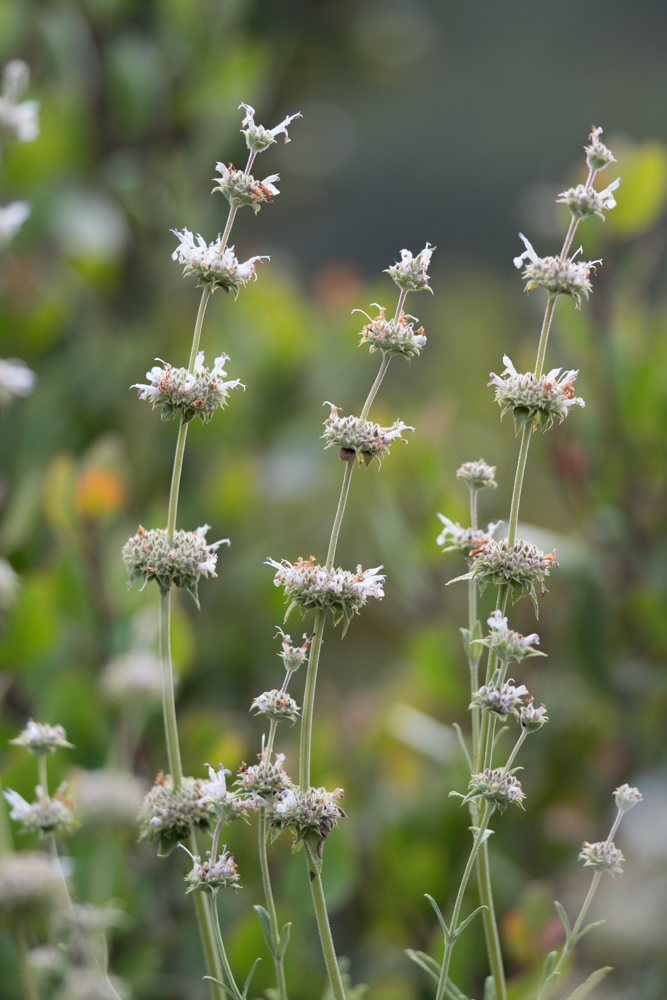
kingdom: Plantae
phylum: Tracheophyta
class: Magnoliopsida
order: Lamiales
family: Lamiaceae
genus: Salvia
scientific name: Salvia mellifera
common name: Black sage
